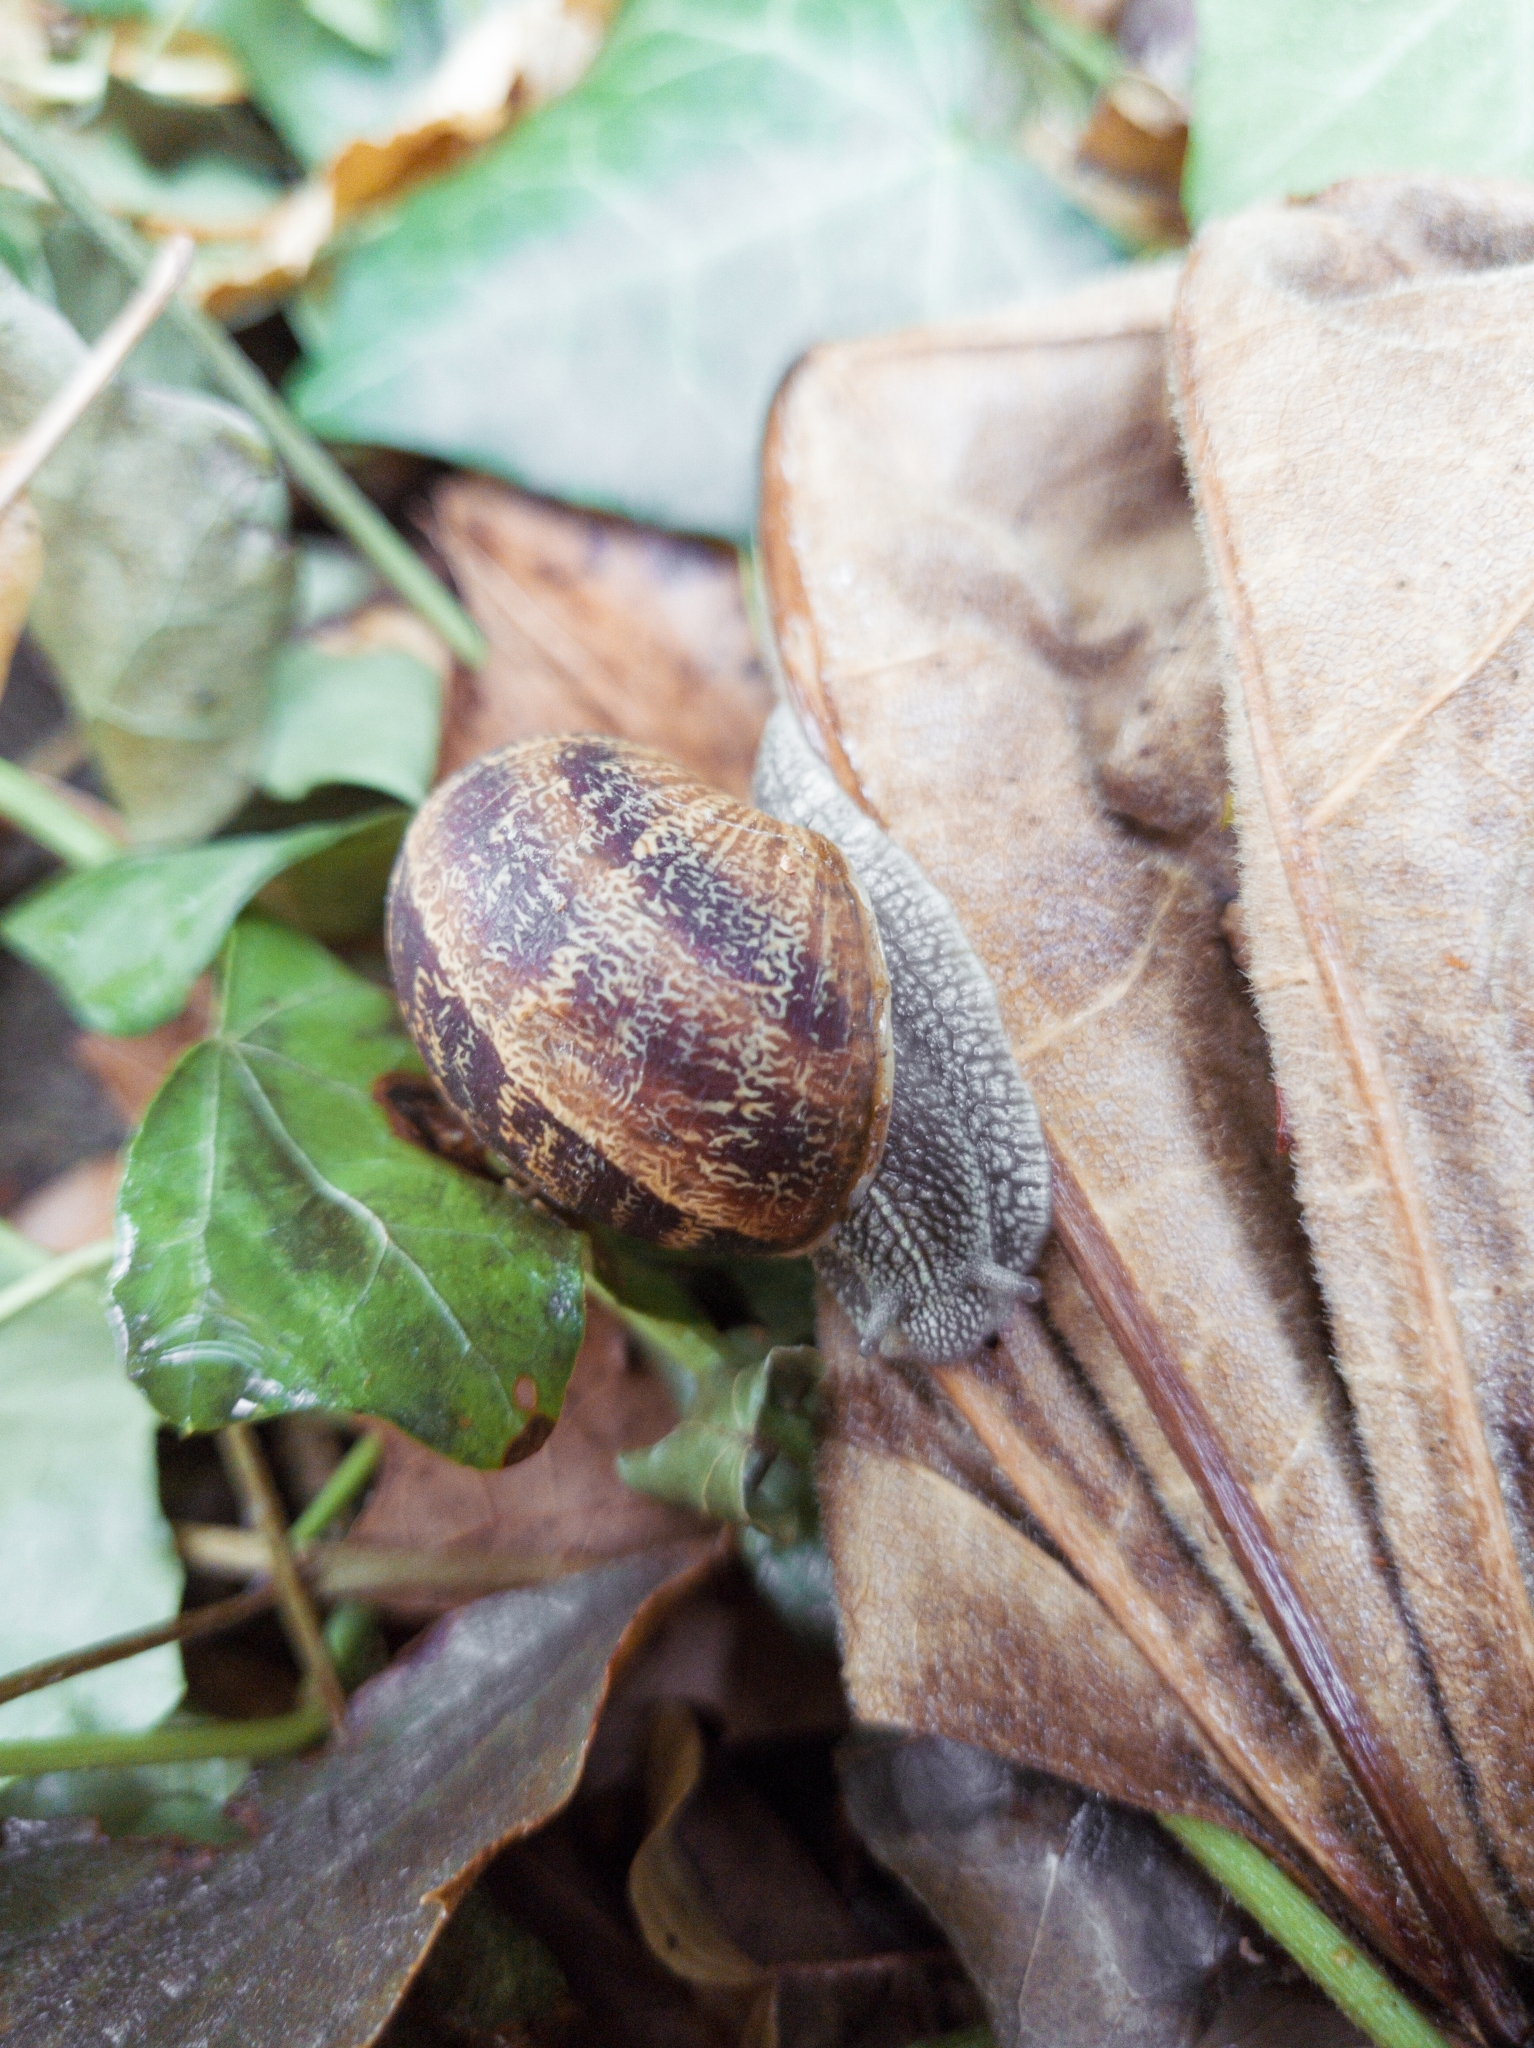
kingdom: Animalia
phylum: Mollusca
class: Gastropoda
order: Stylommatophora
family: Helicidae
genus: Cornu
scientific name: Cornu aspersum
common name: Brown garden snail
